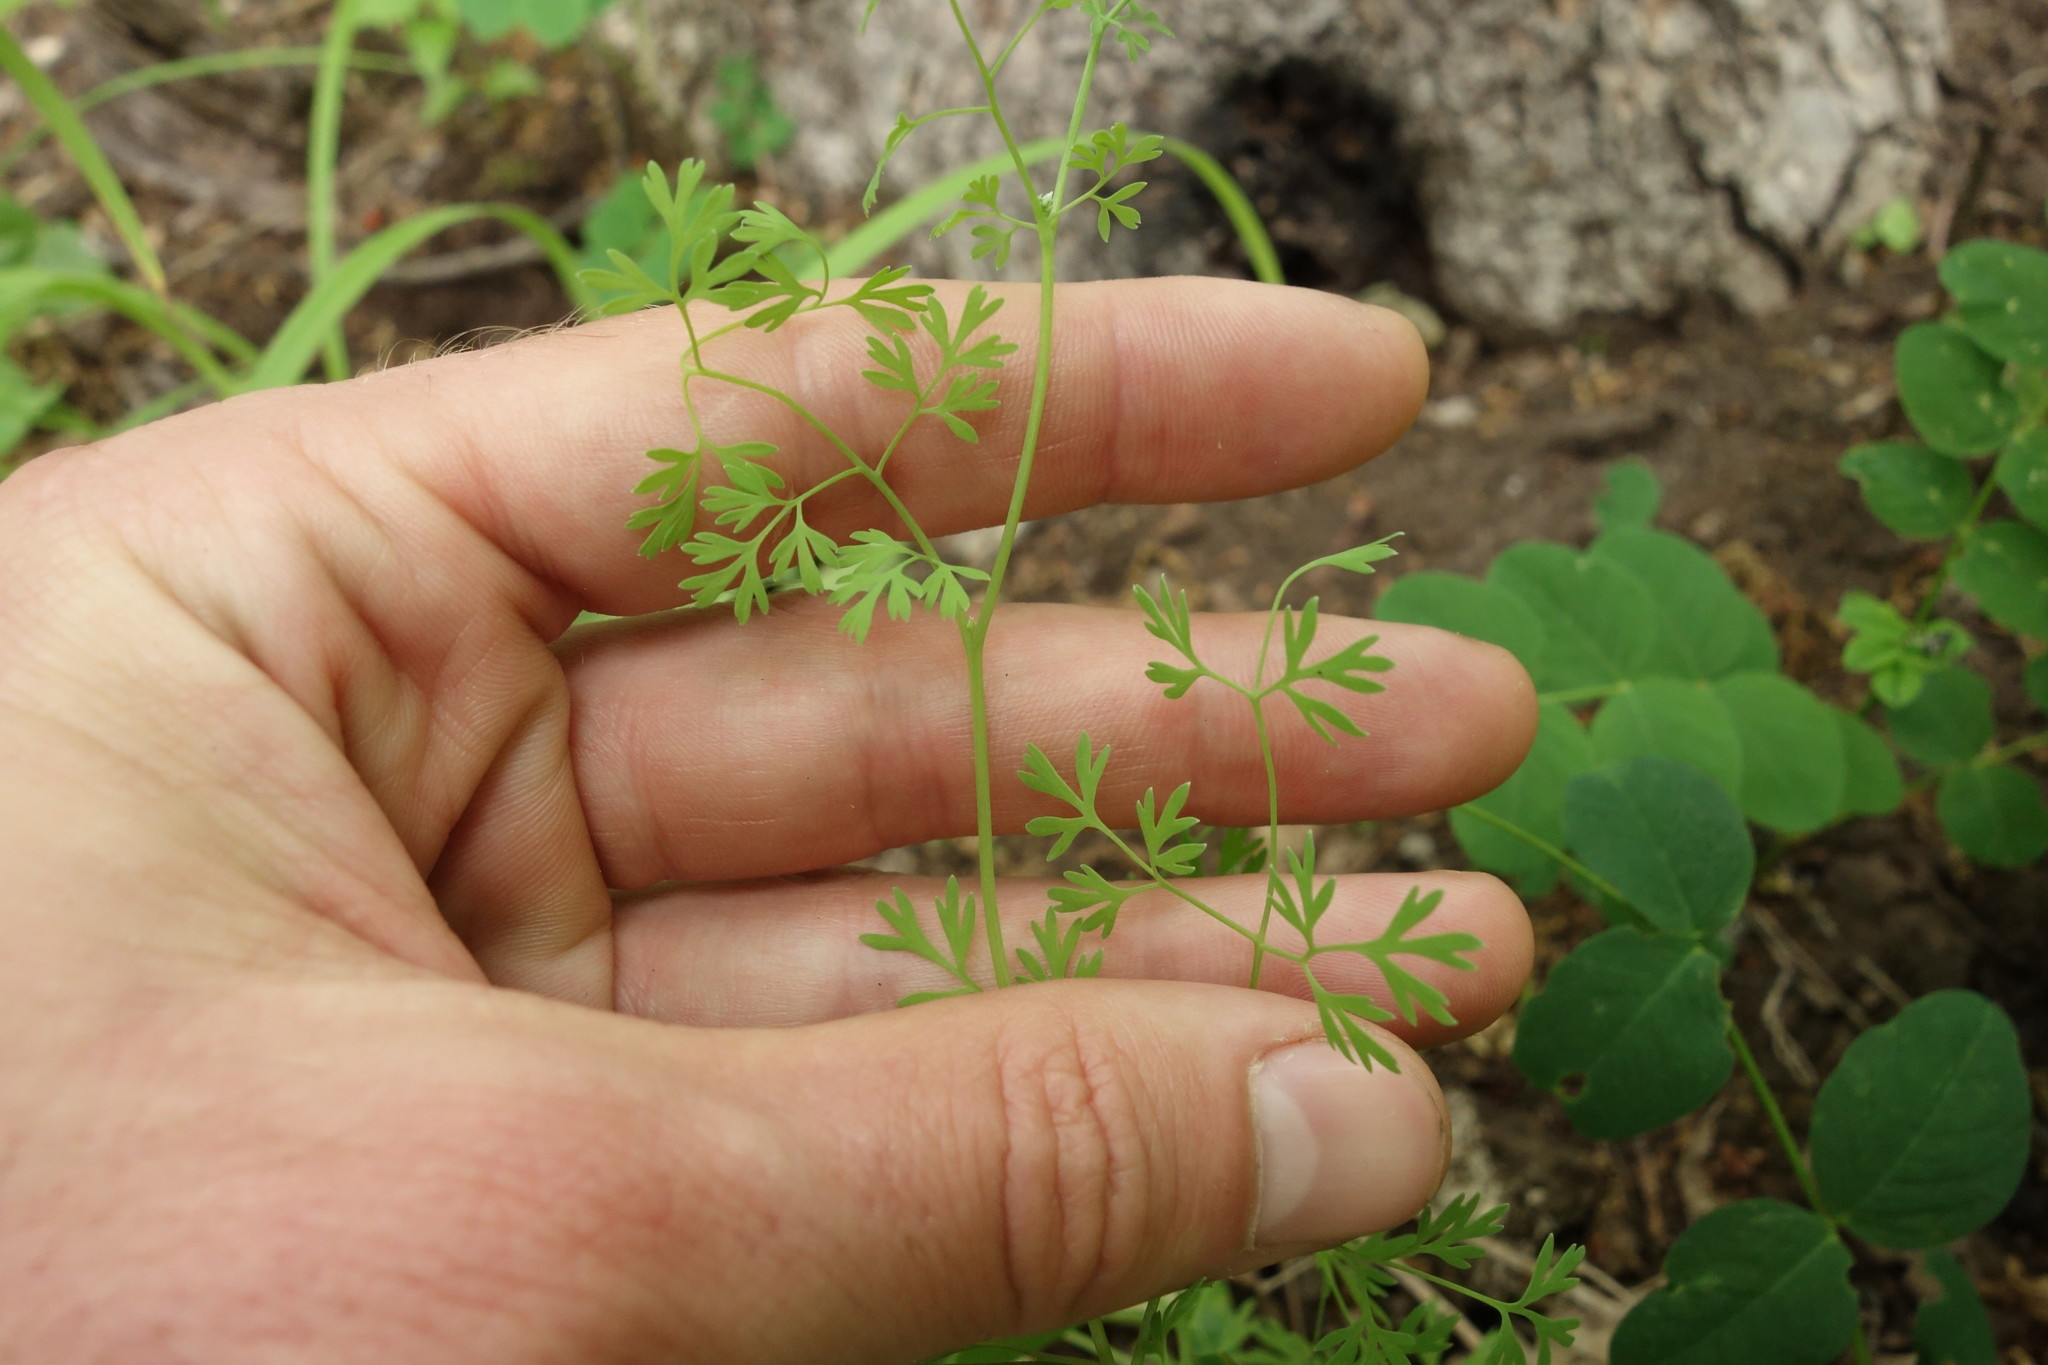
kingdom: Plantae
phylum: Tracheophyta
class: Magnoliopsida
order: Ranunculales
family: Papaveraceae
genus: Fumaria
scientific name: Fumaria officinalis
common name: Common fumitory
